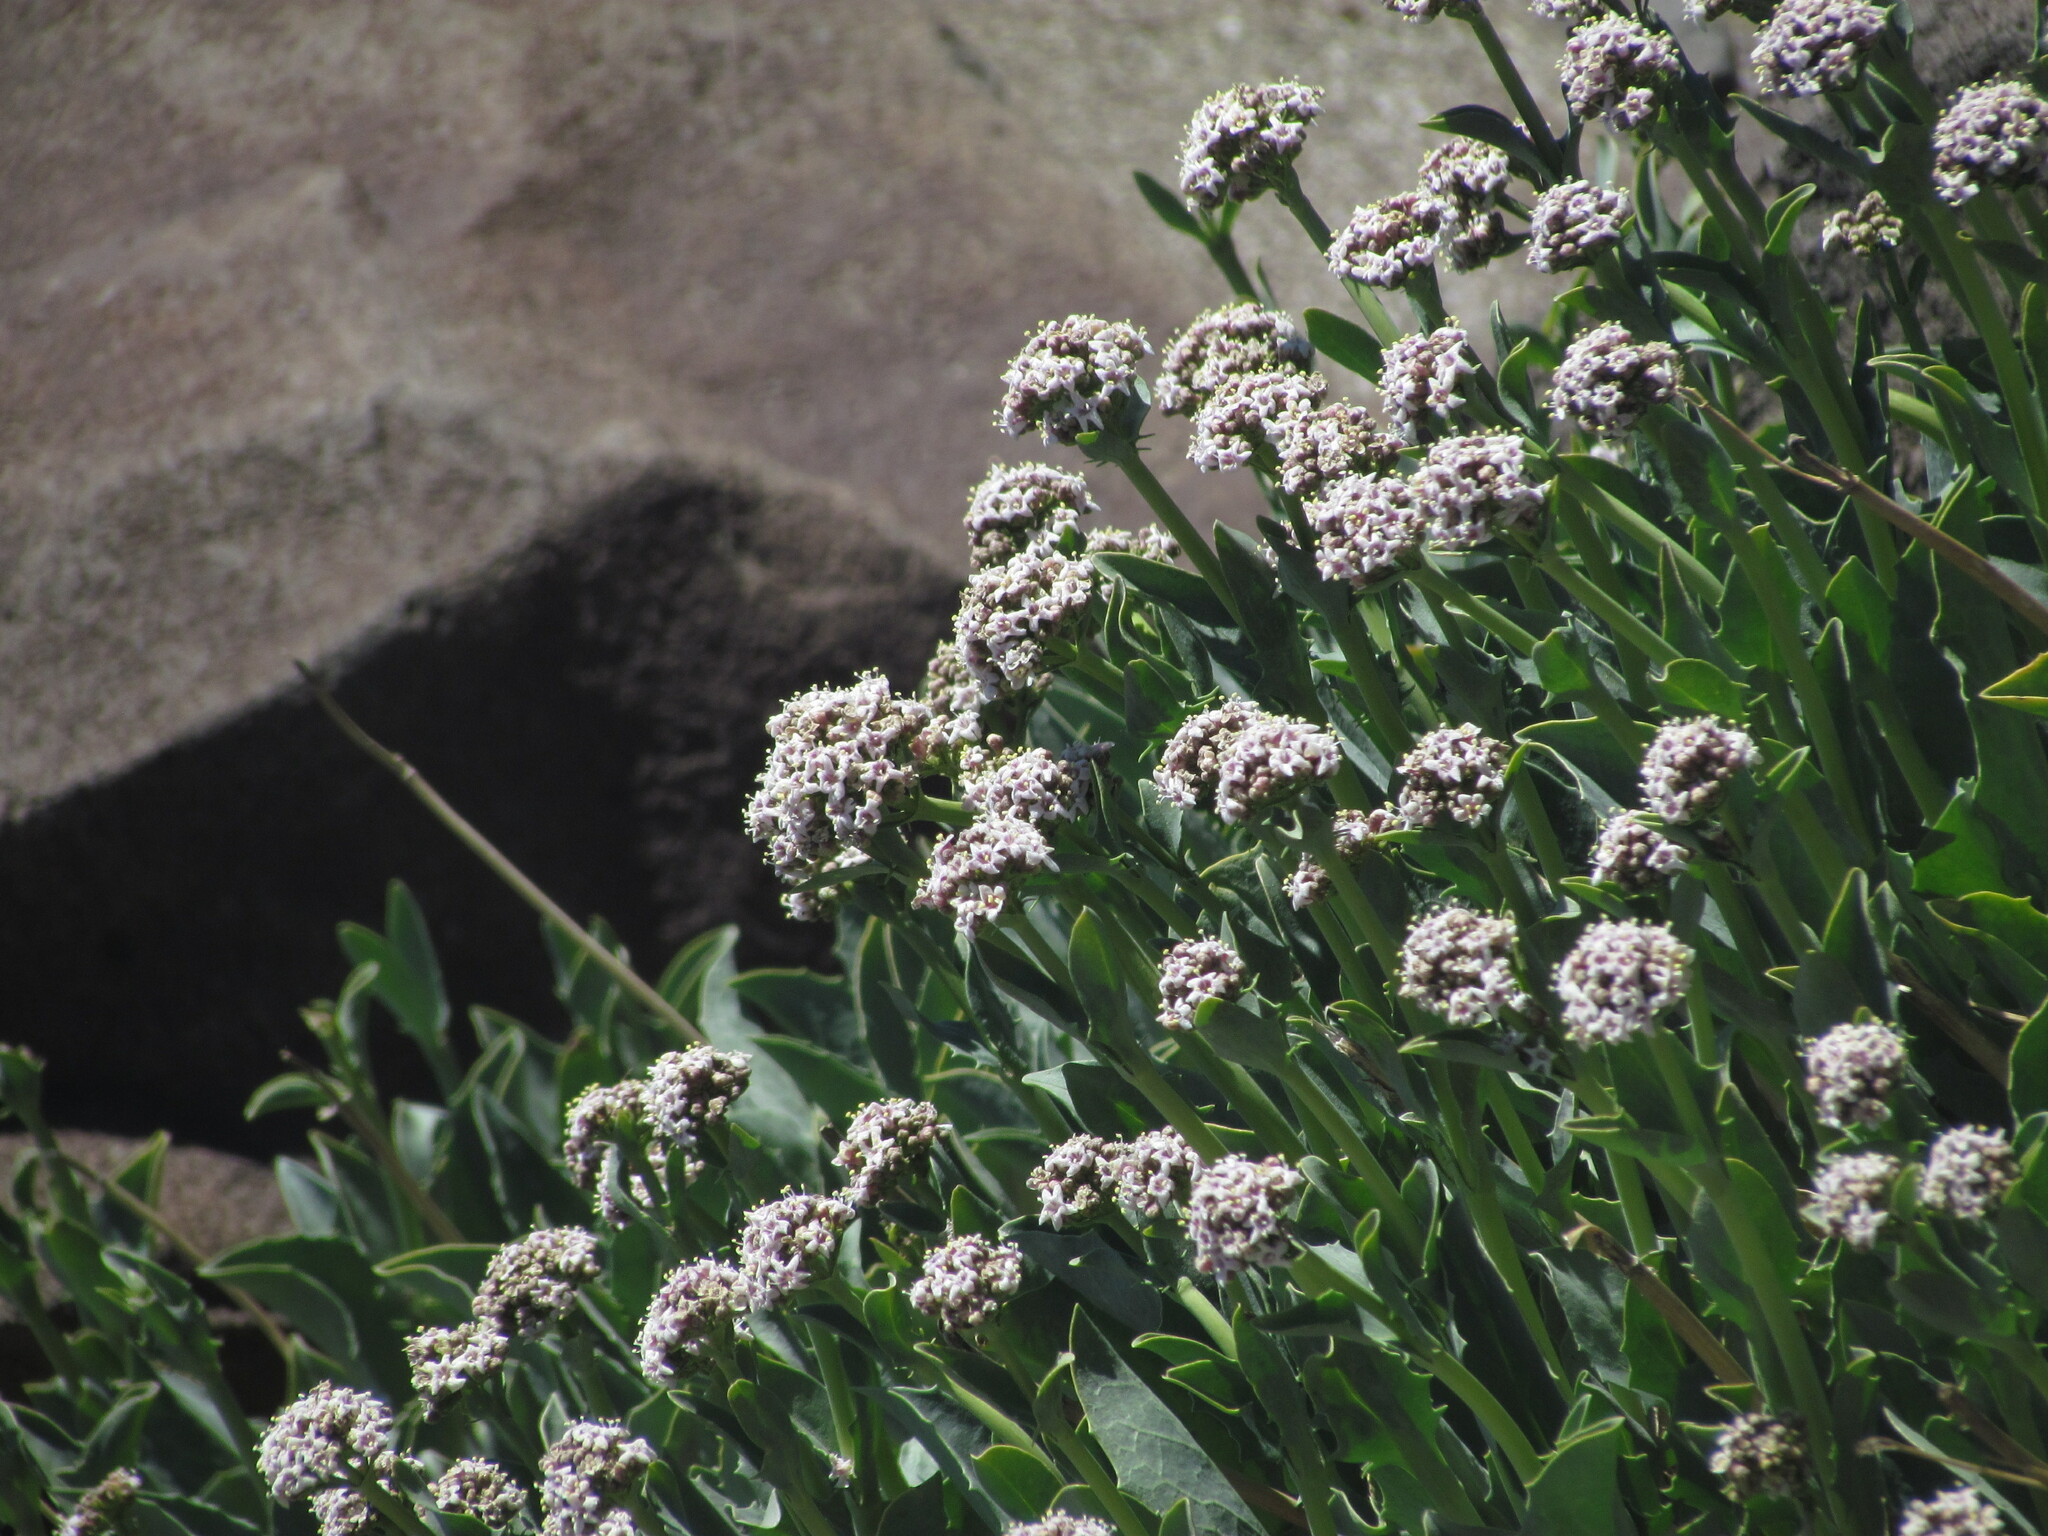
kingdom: Plantae
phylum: Tracheophyta
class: Magnoliopsida
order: Dipsacales
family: Caprifoliaceae
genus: Valeriana
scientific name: Valeriana carnosa
